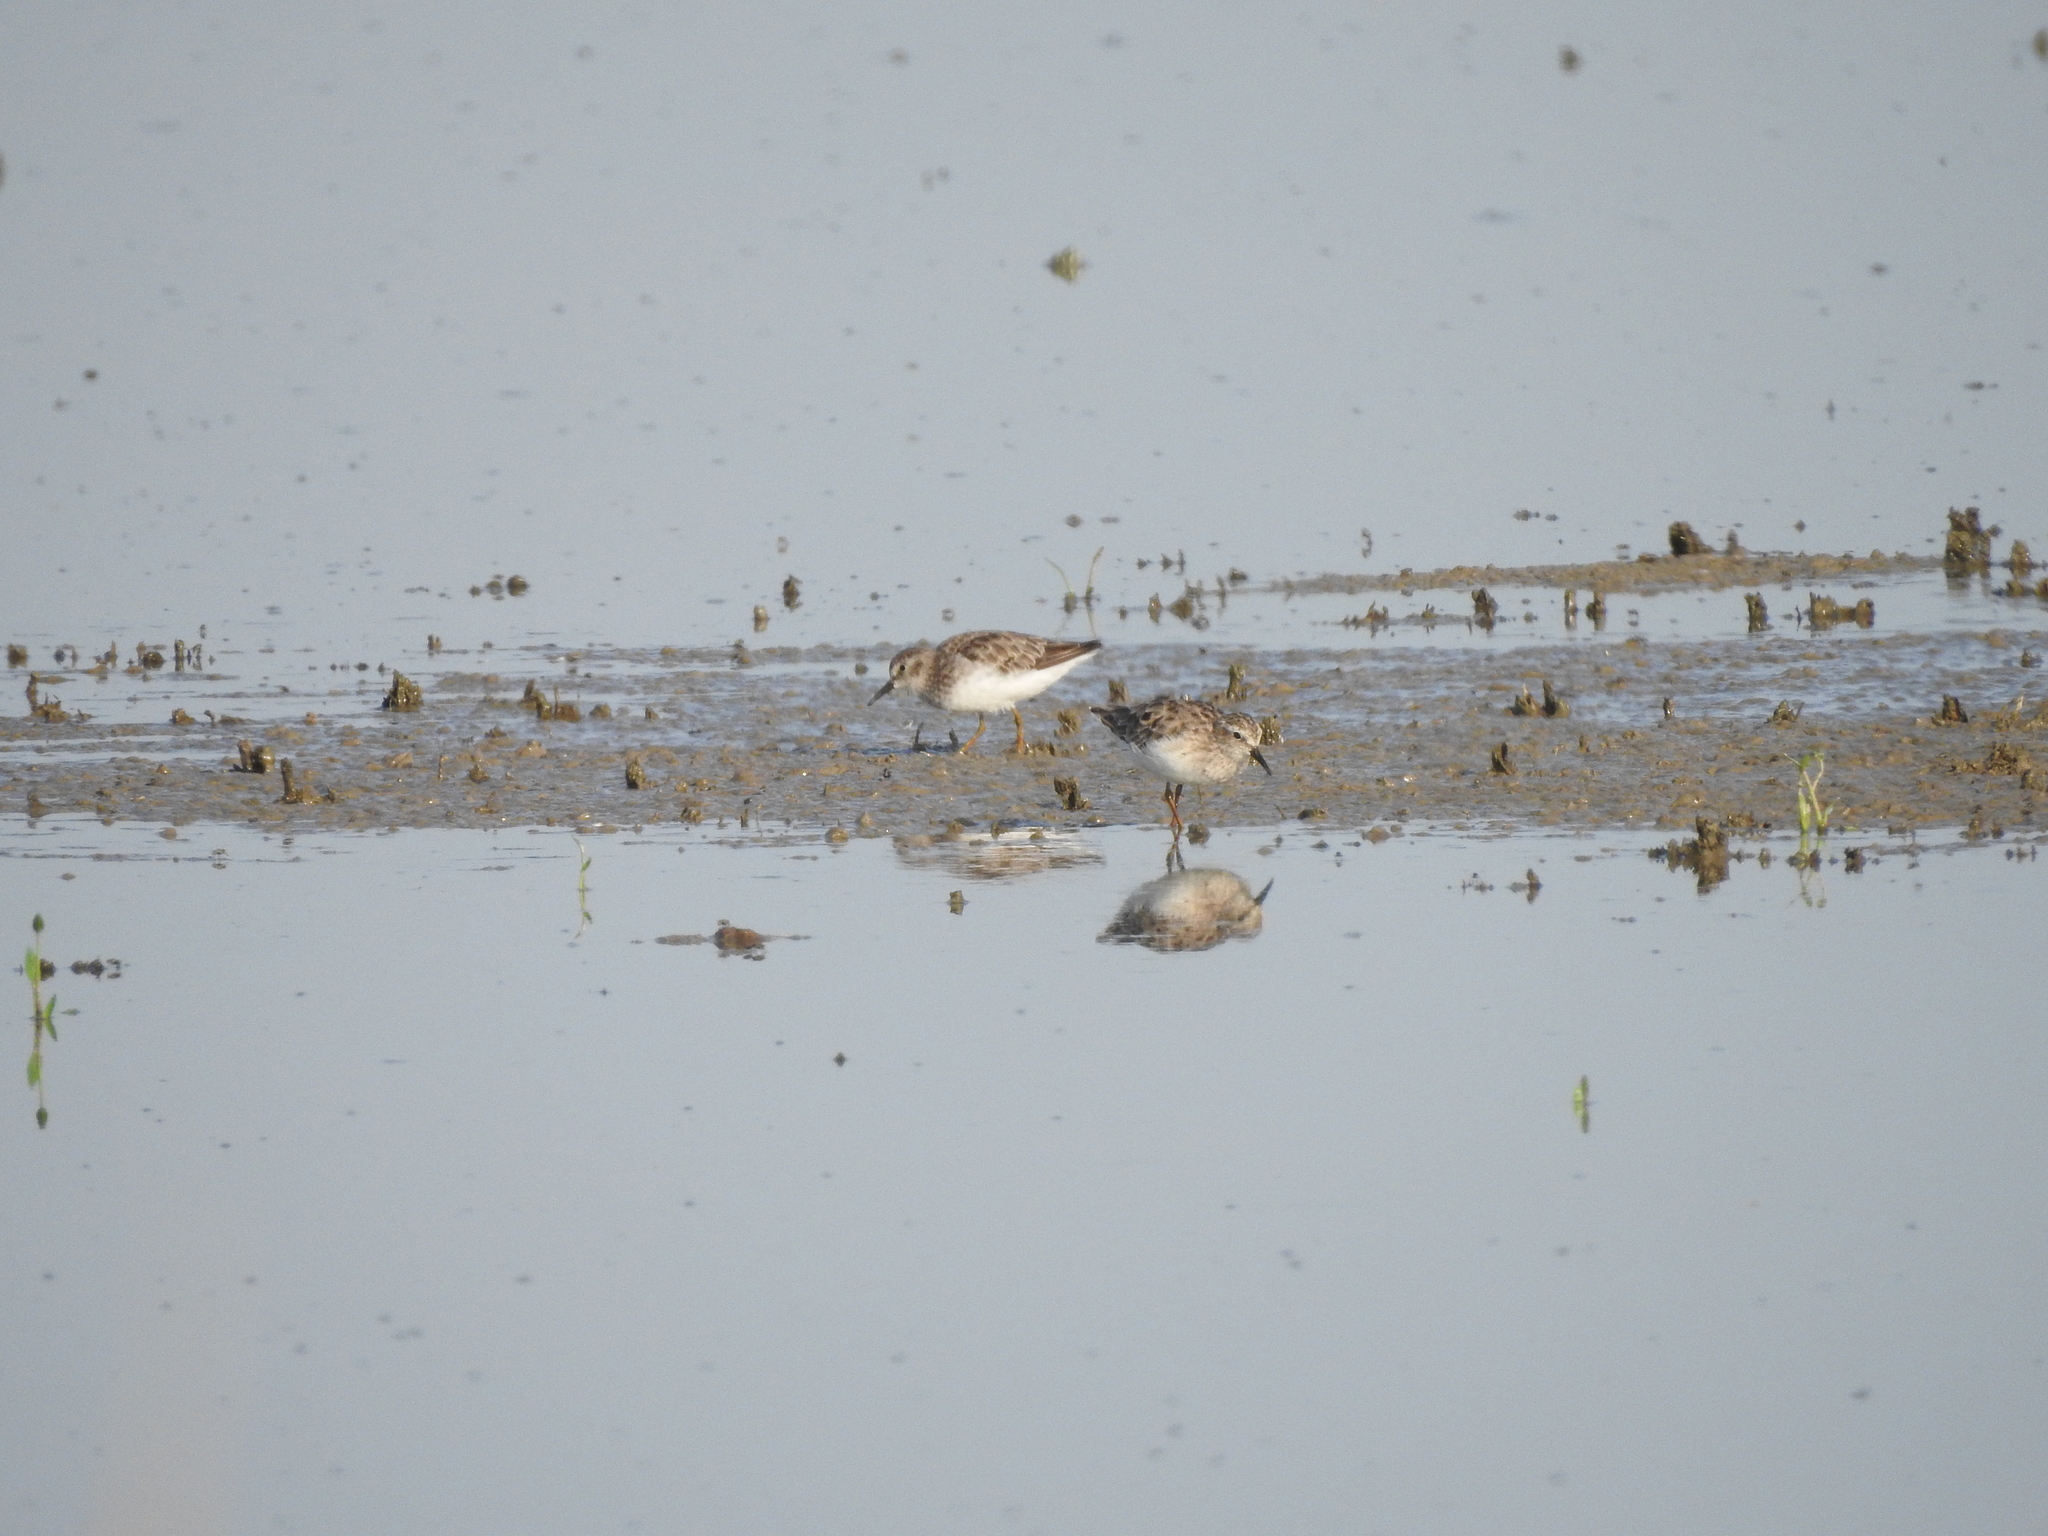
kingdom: Animalia
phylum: Chordata
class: Aves
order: Charadriiformes
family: Scolopacidae
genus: Calidris
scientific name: Calidris minutilla
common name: Least sandpiper
